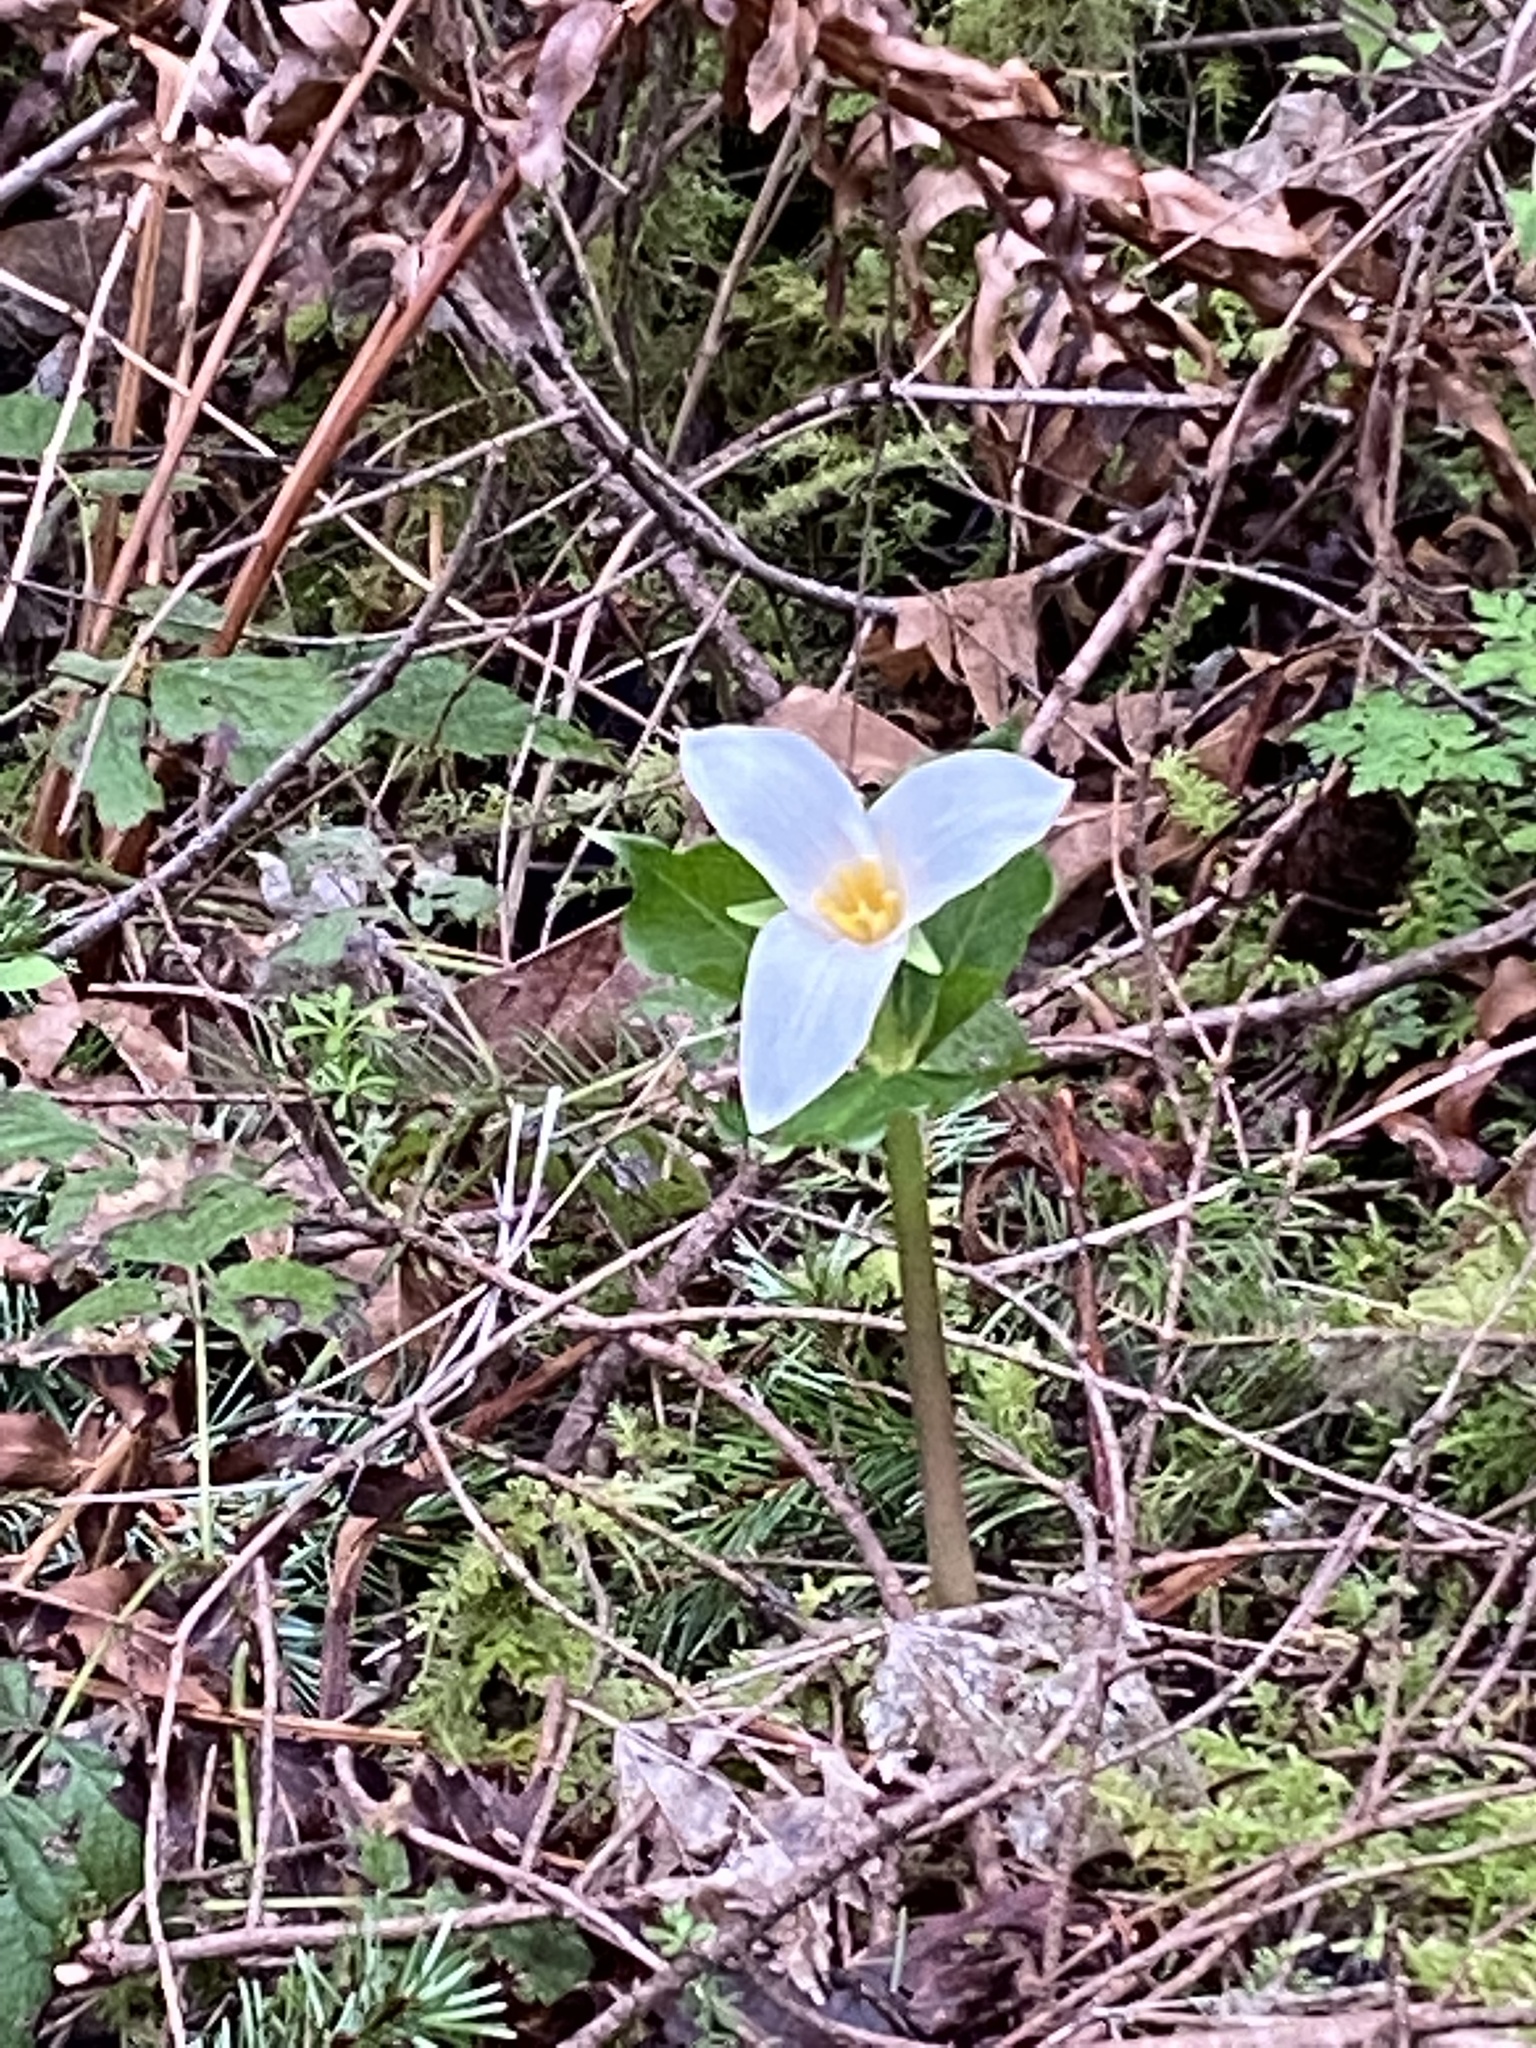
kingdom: Plantae
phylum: Tracheophyta
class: Liliopsida
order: Liliales
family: Melanthiaceae
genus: Trillium
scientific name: Trillium ovatum
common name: Pacific trillium
